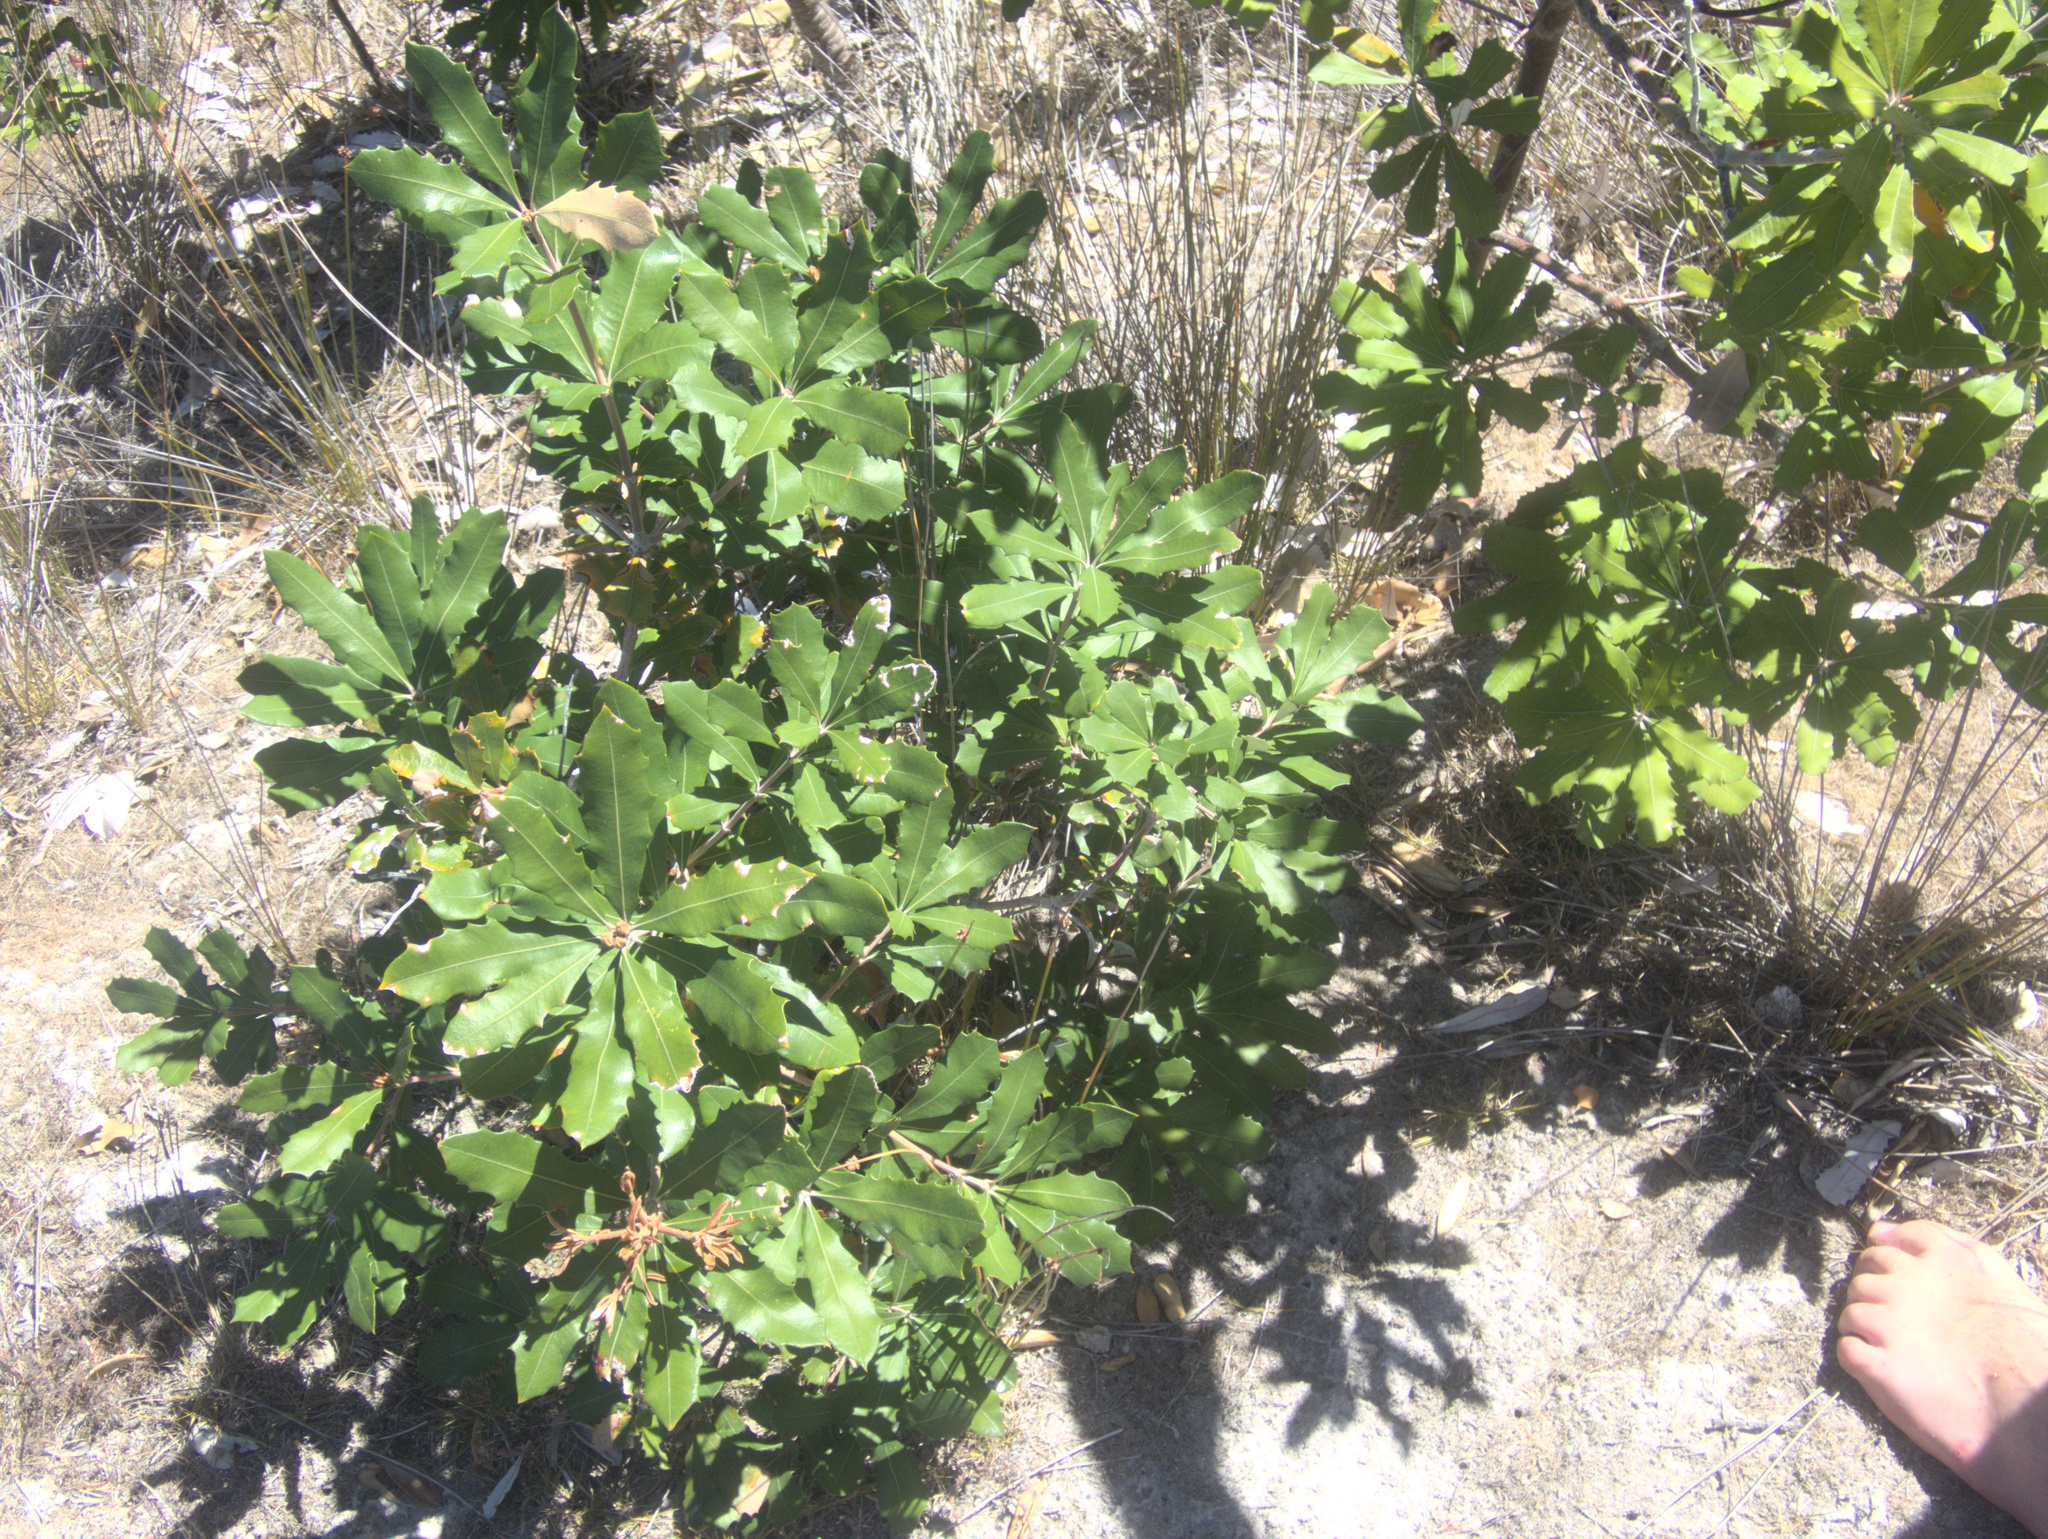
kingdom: Plantae
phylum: Tracheophyta
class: Magnoliopsida
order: Proteales
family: Proteaceae
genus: Banksia
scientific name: Banksia integrifolia
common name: White-honeysuckle
